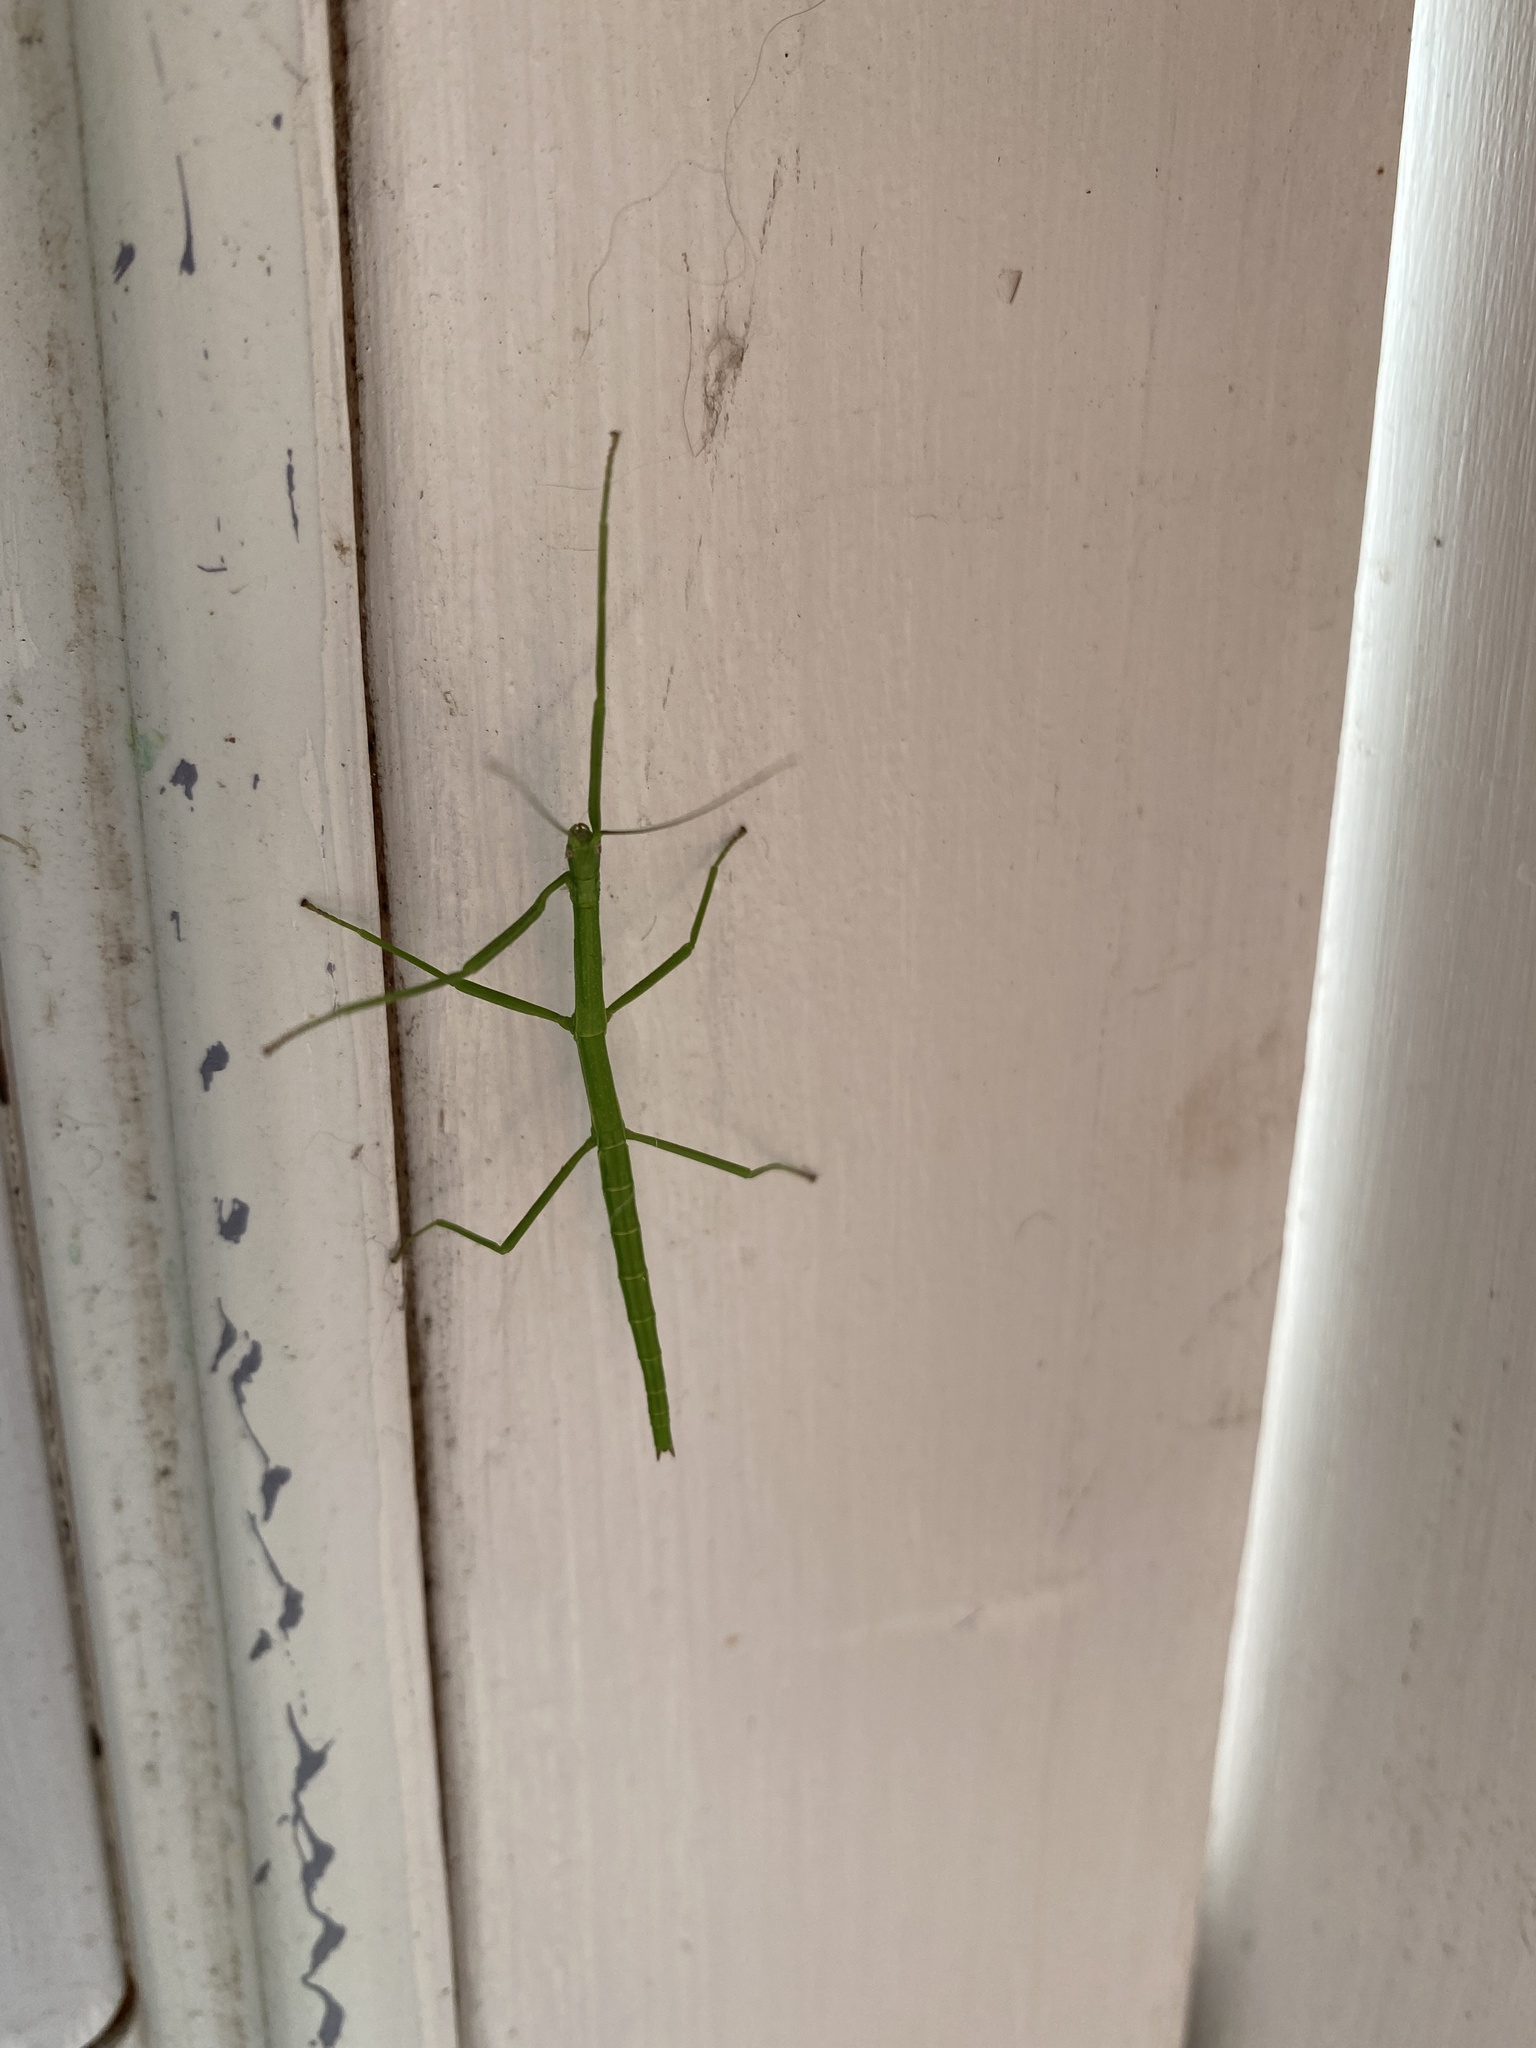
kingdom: Animalia
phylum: Arthropoda
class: Insecta
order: Phasmida
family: Diapheromeridae
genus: Diapheromera
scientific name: Diapheromera femorata
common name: Common american walkingstick
